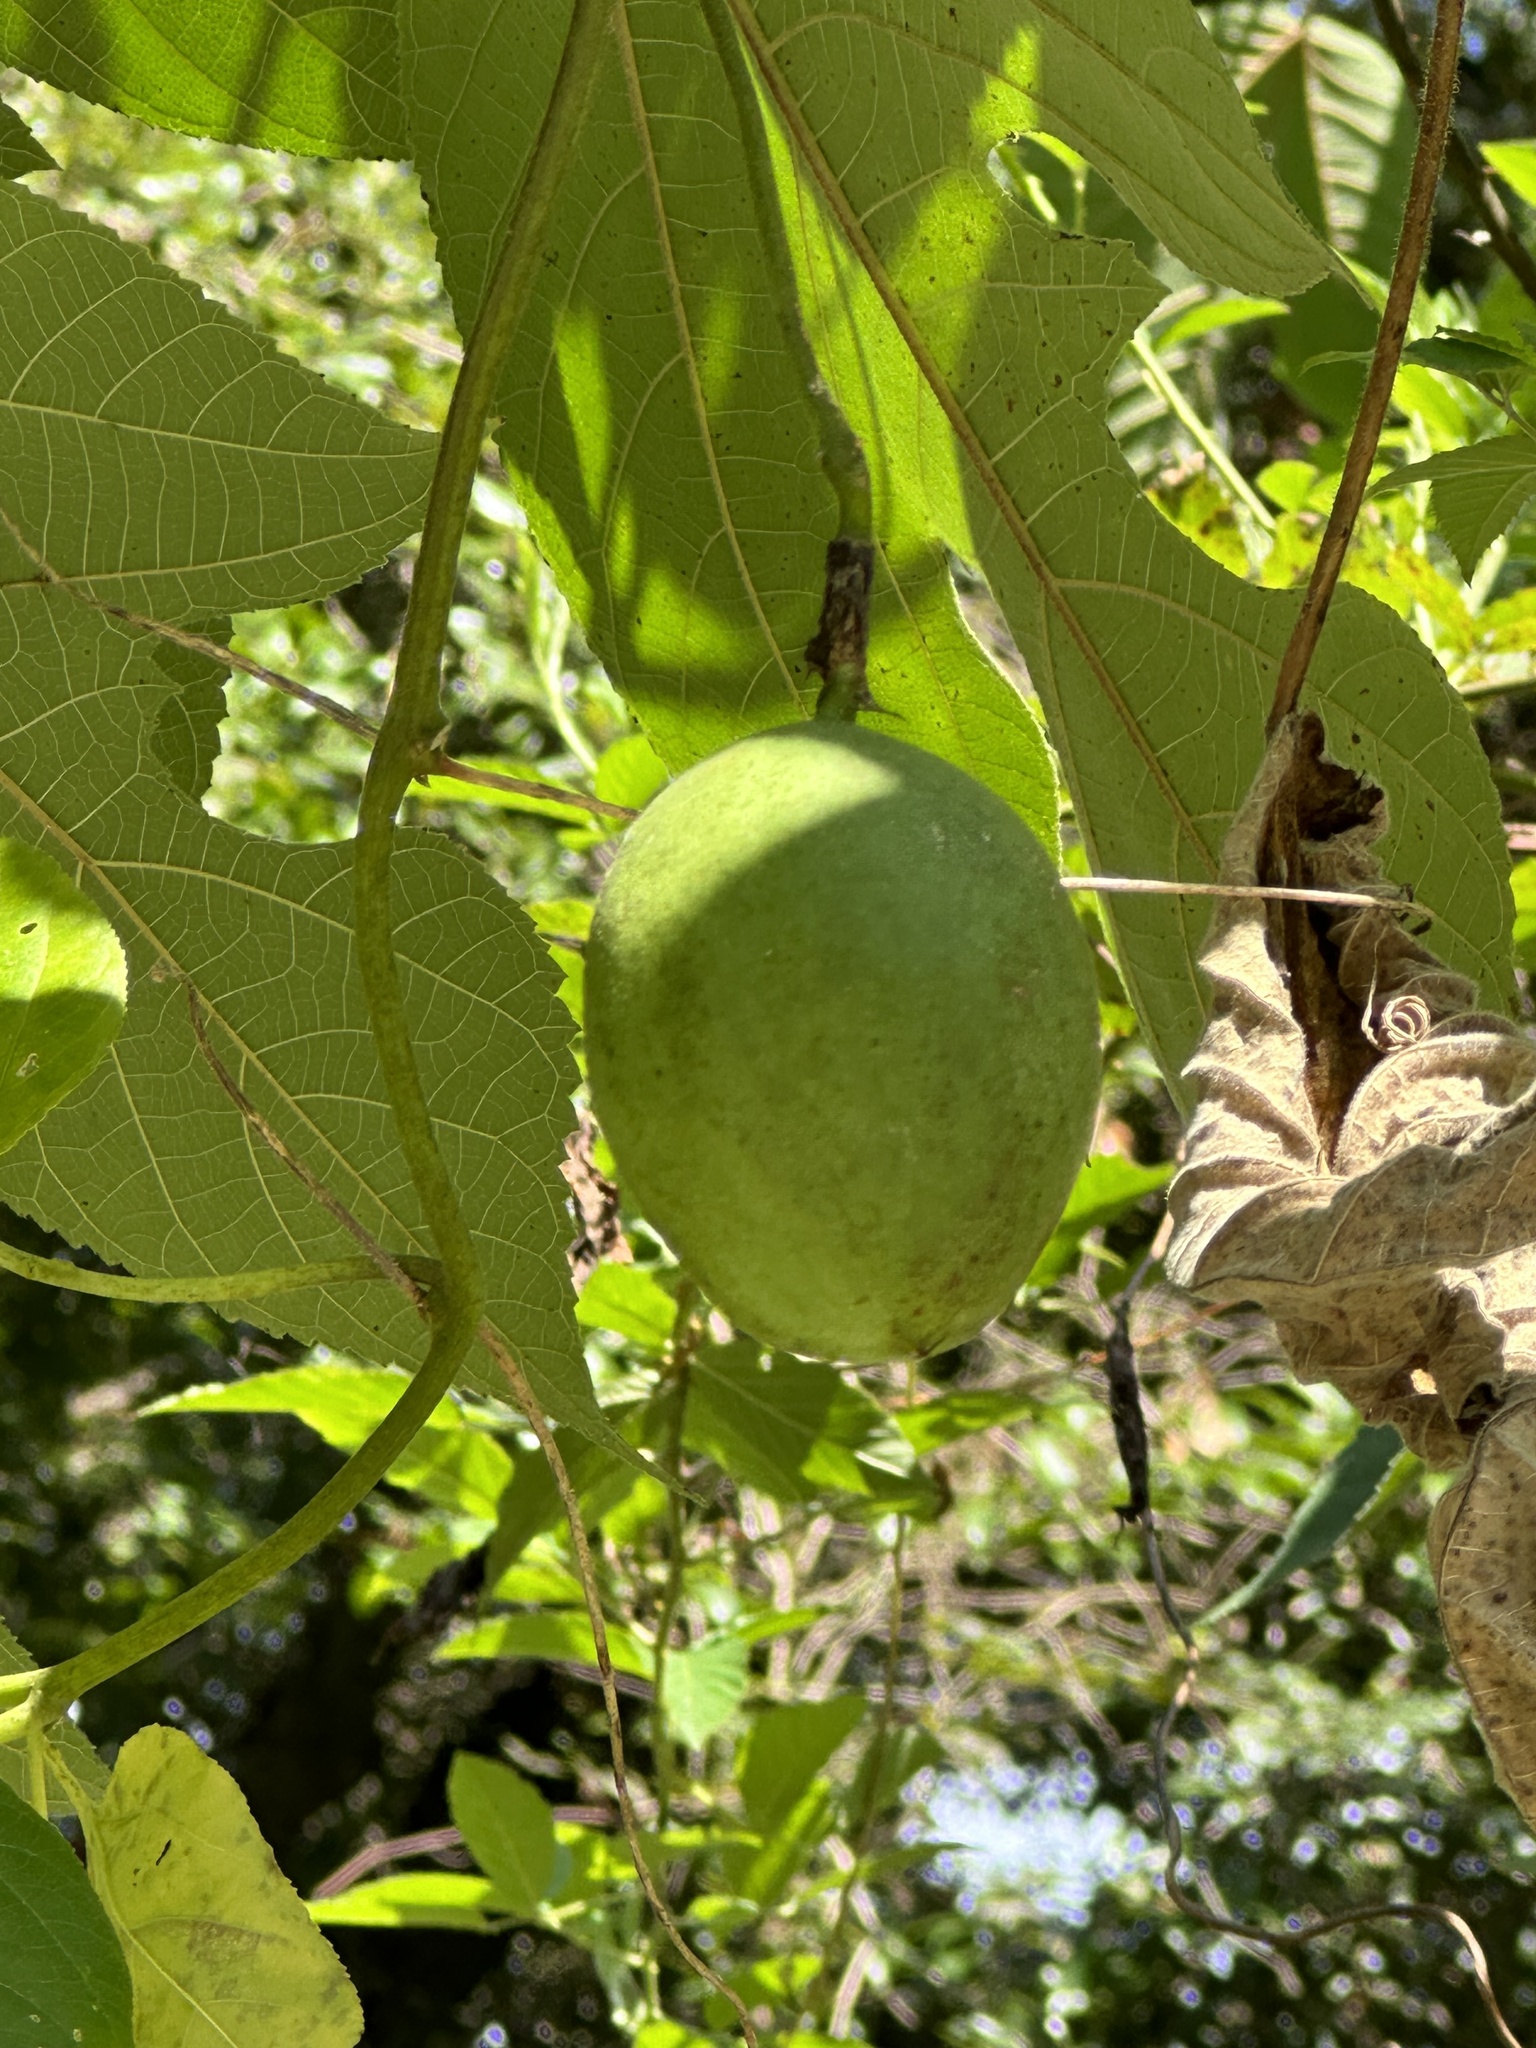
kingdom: Plantae
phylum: Tracheophyta
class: Magnoliopsida
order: Malpighiales
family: Passifloraceae
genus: Passiflora
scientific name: Passiflora incarnata
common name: Apricot-vine
